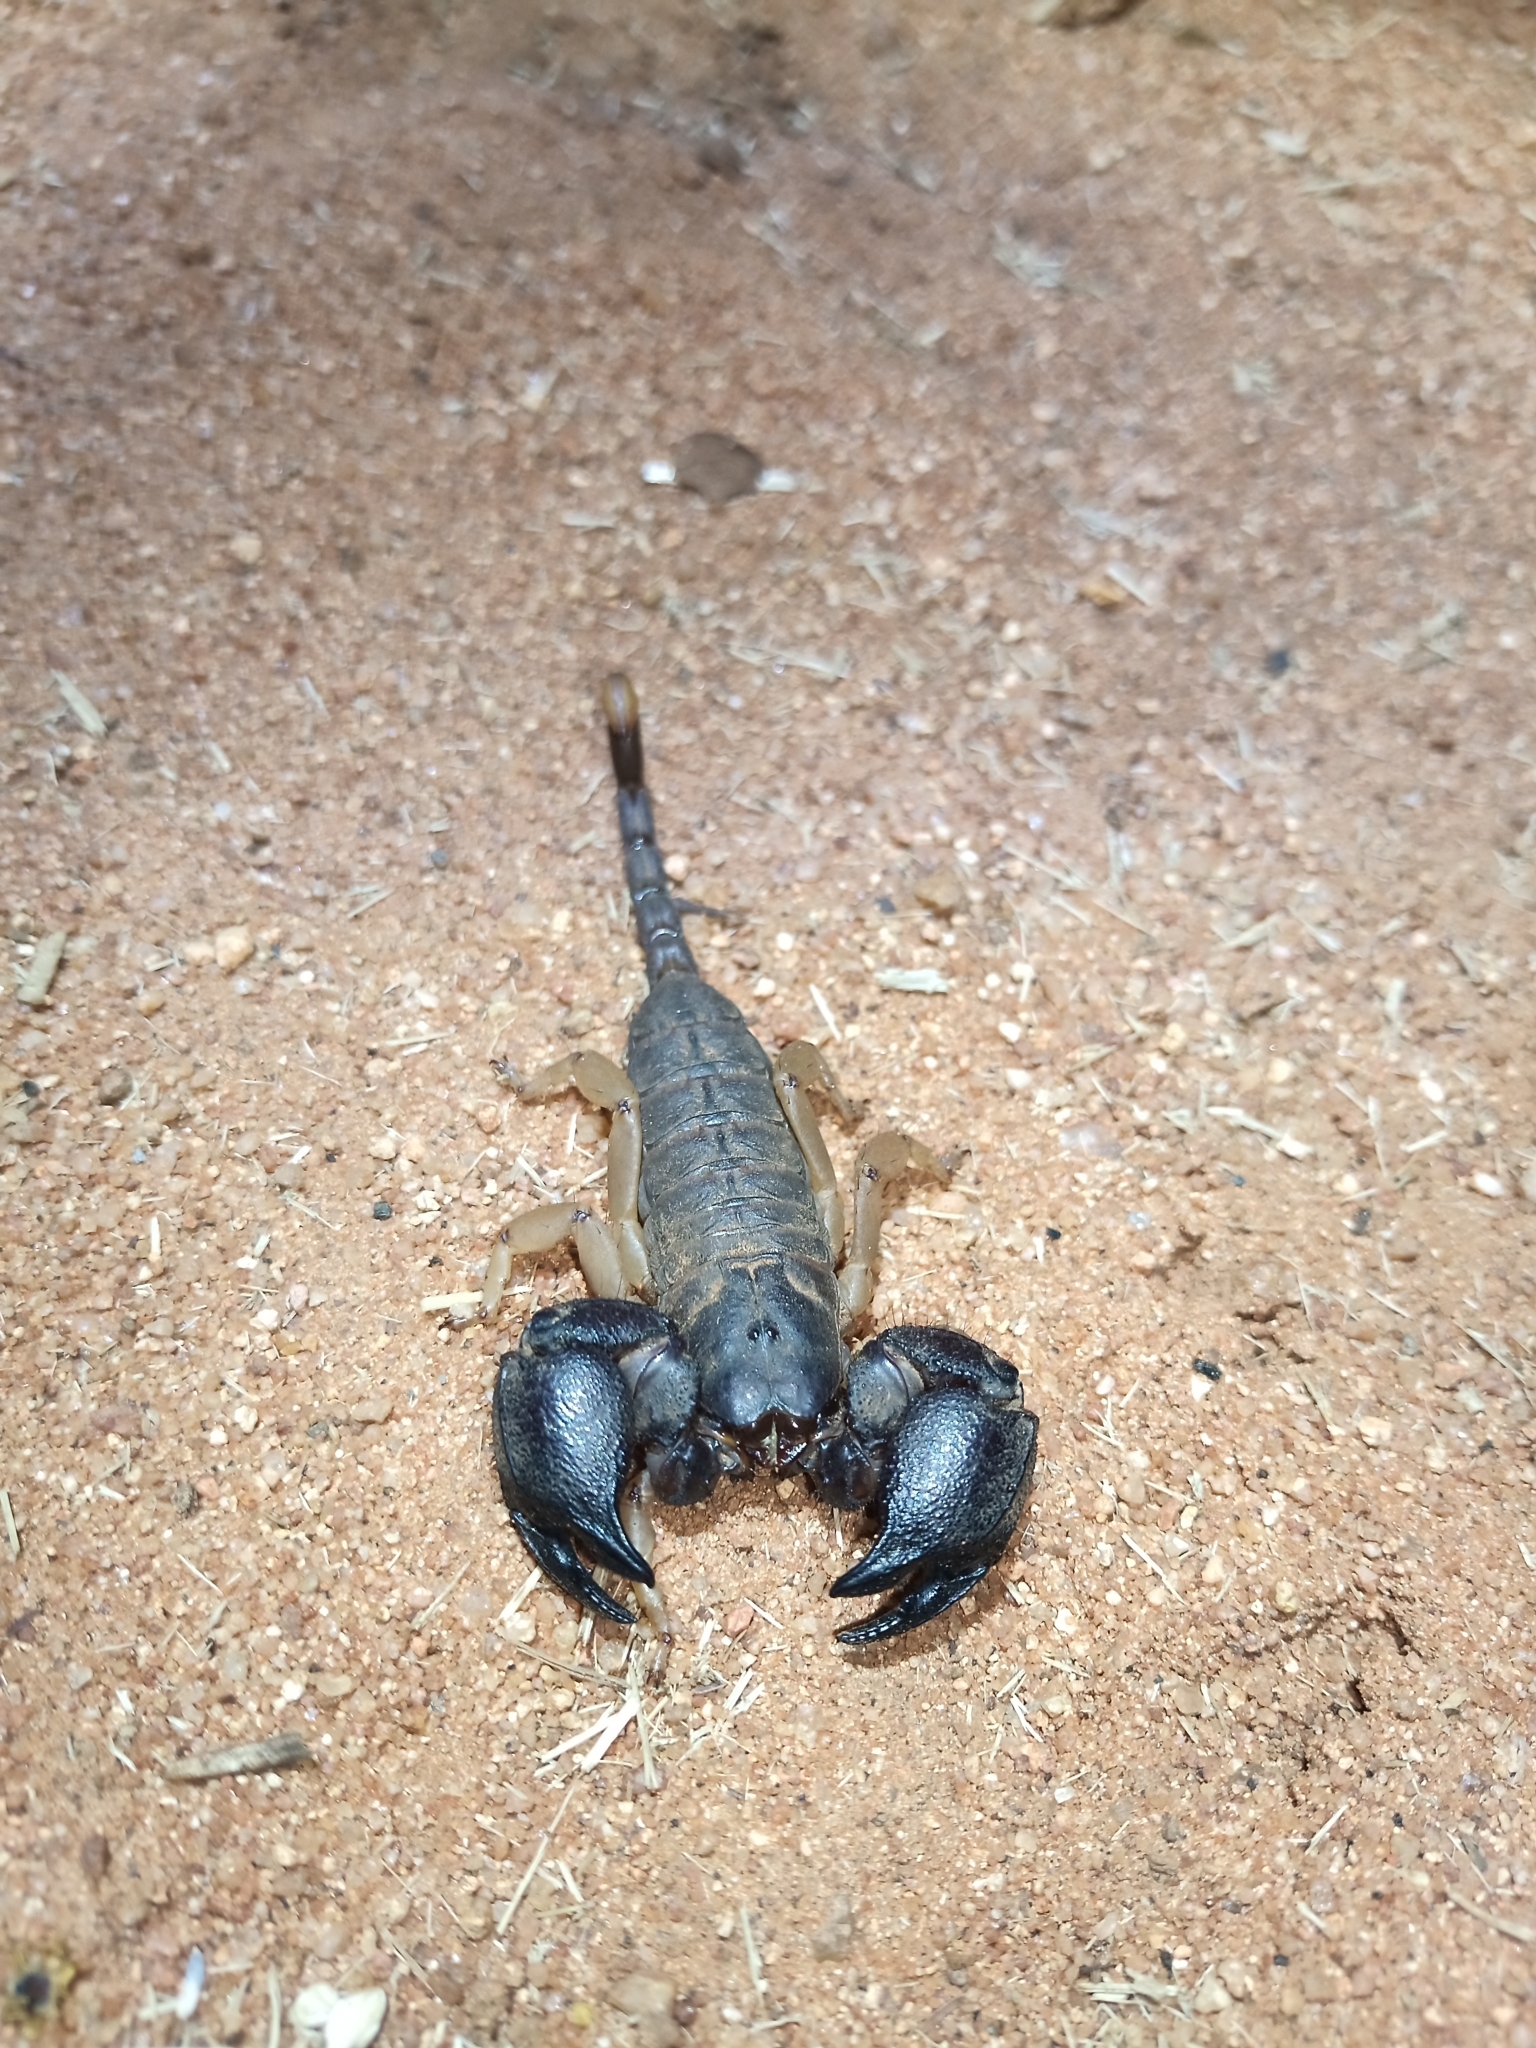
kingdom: Animalia
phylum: Arthropoda
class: Arachnida
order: Scorpiones
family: Hormuridae
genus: Cheloctonus
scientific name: Cheloctonus jonesii
